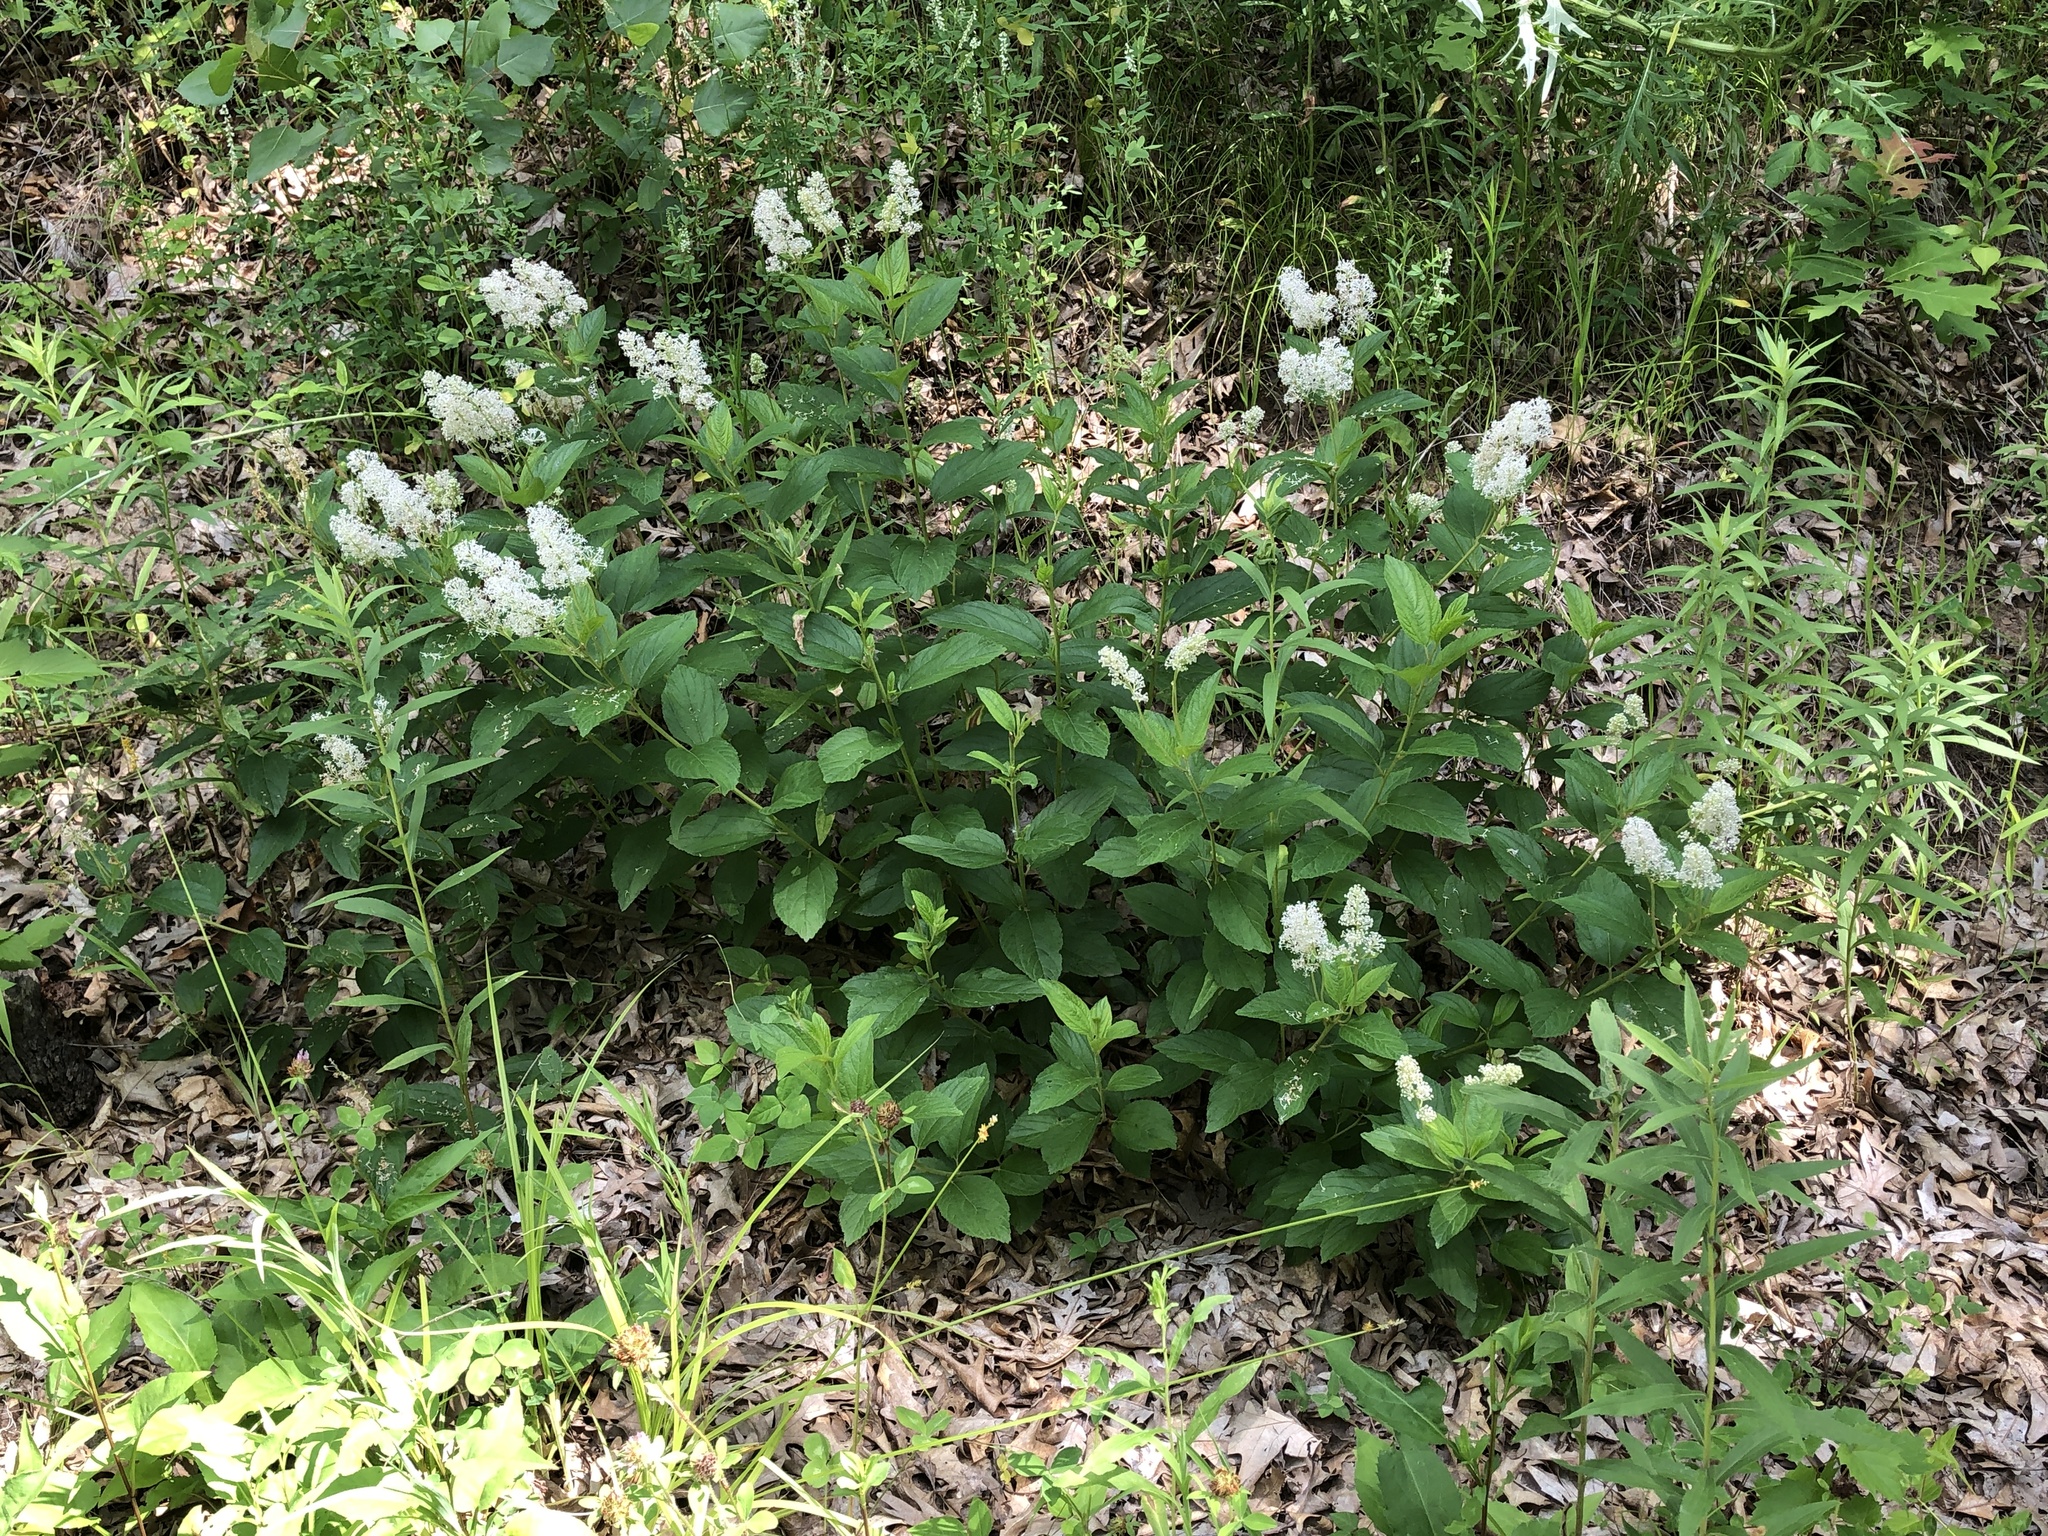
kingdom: Plantae
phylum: Tracheophyta
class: Magnoliopsida
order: Rosales
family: Rhamnaceae
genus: Ceanothus
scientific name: Ceanothus americanus
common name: Redroot
